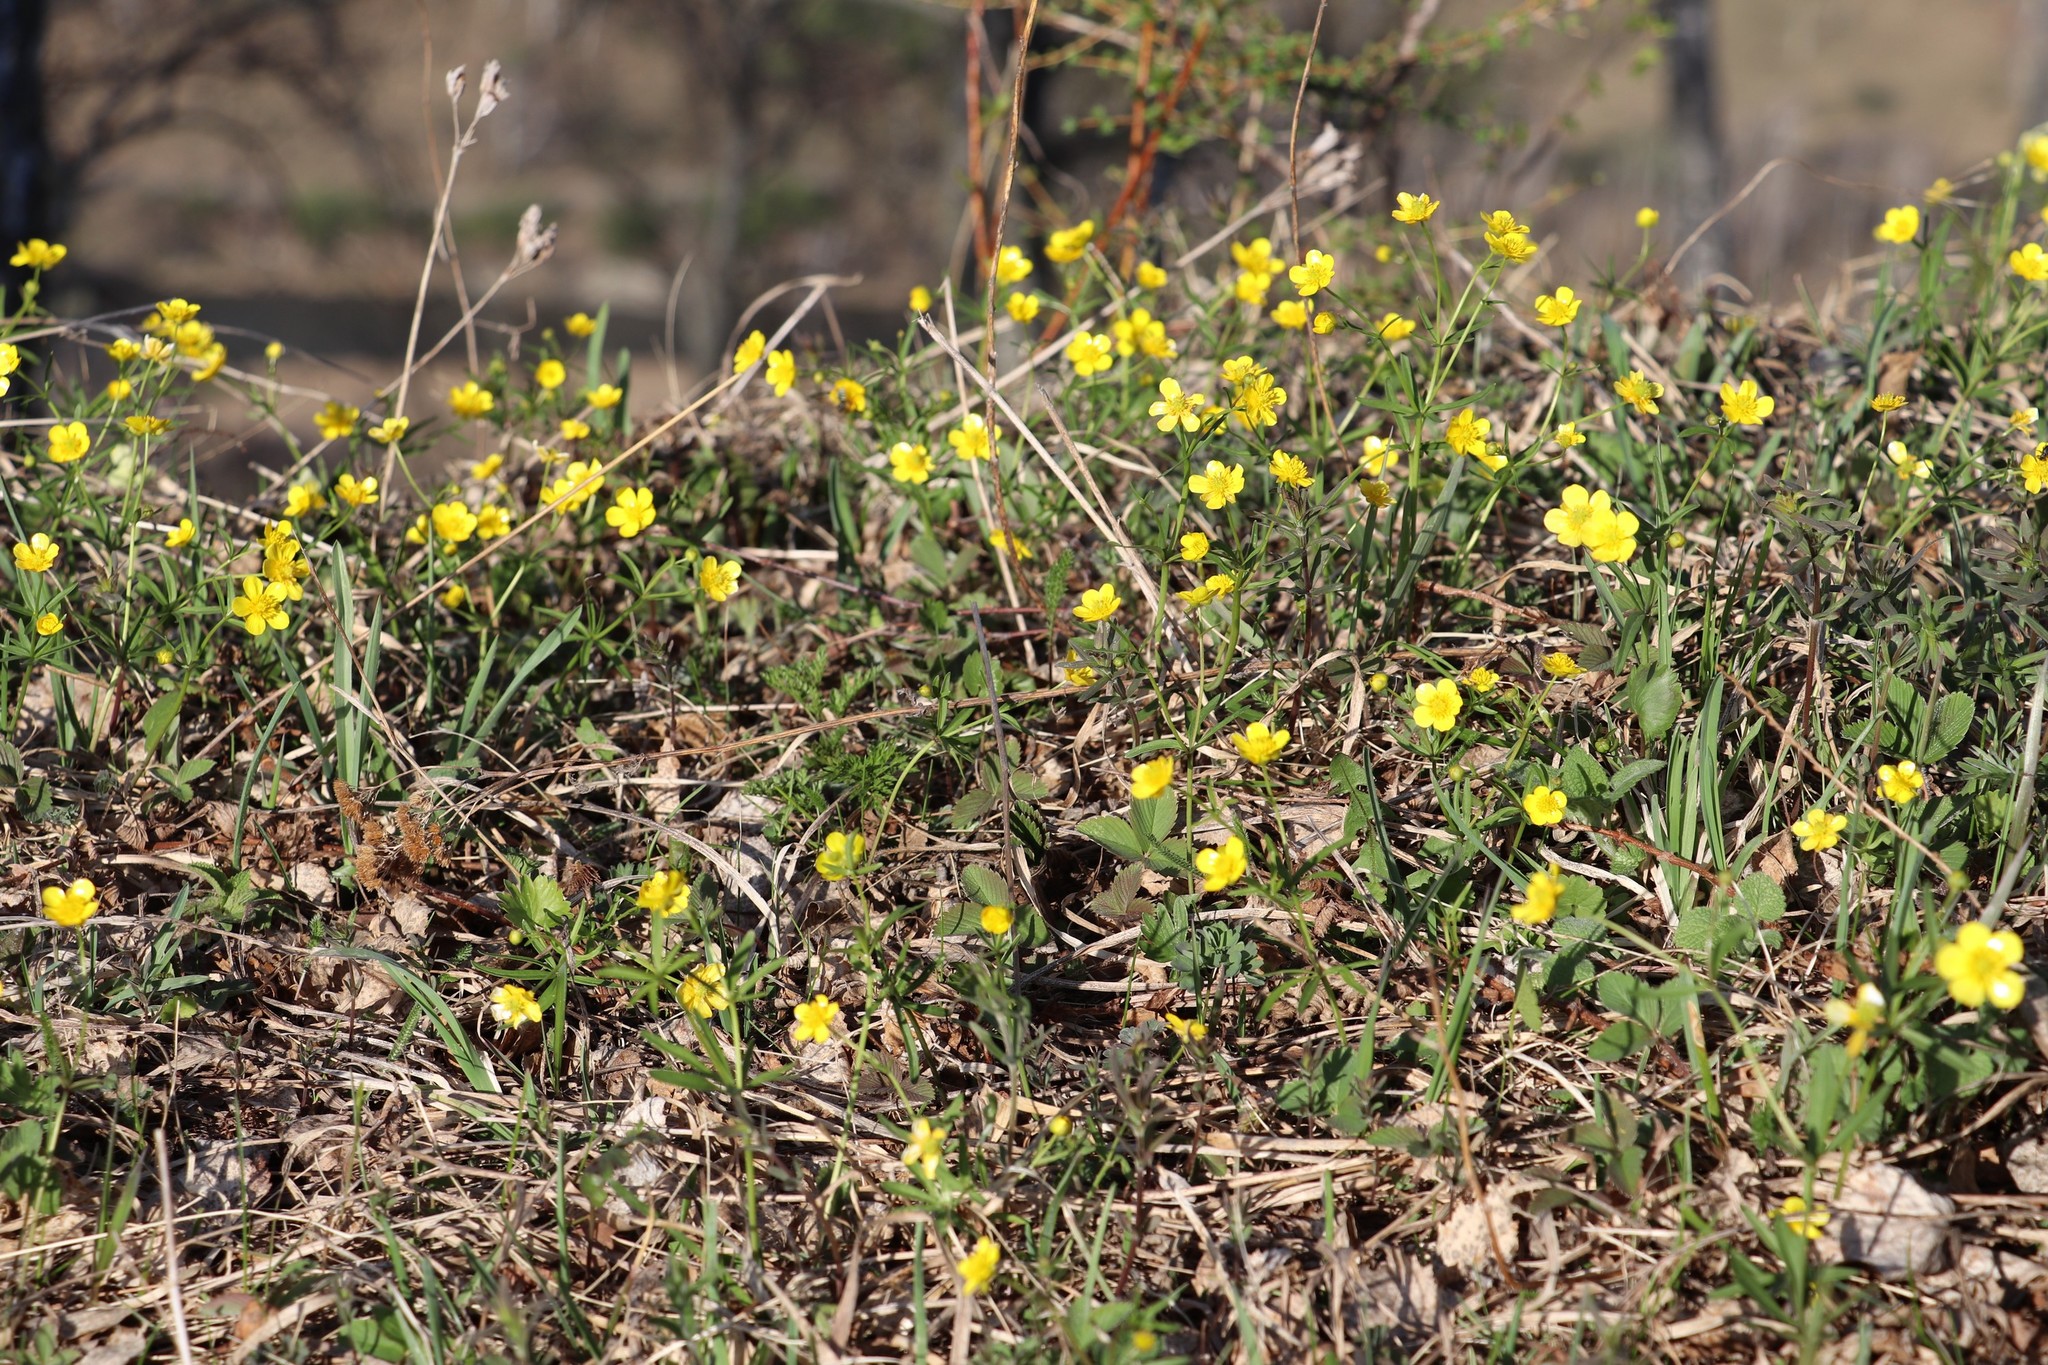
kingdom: Plantae
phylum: Tracheophyta
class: Magnoliopsida
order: Ranunculales
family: Ranunculaceae
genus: Ranunculus
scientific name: Ranunculus monophyllus
